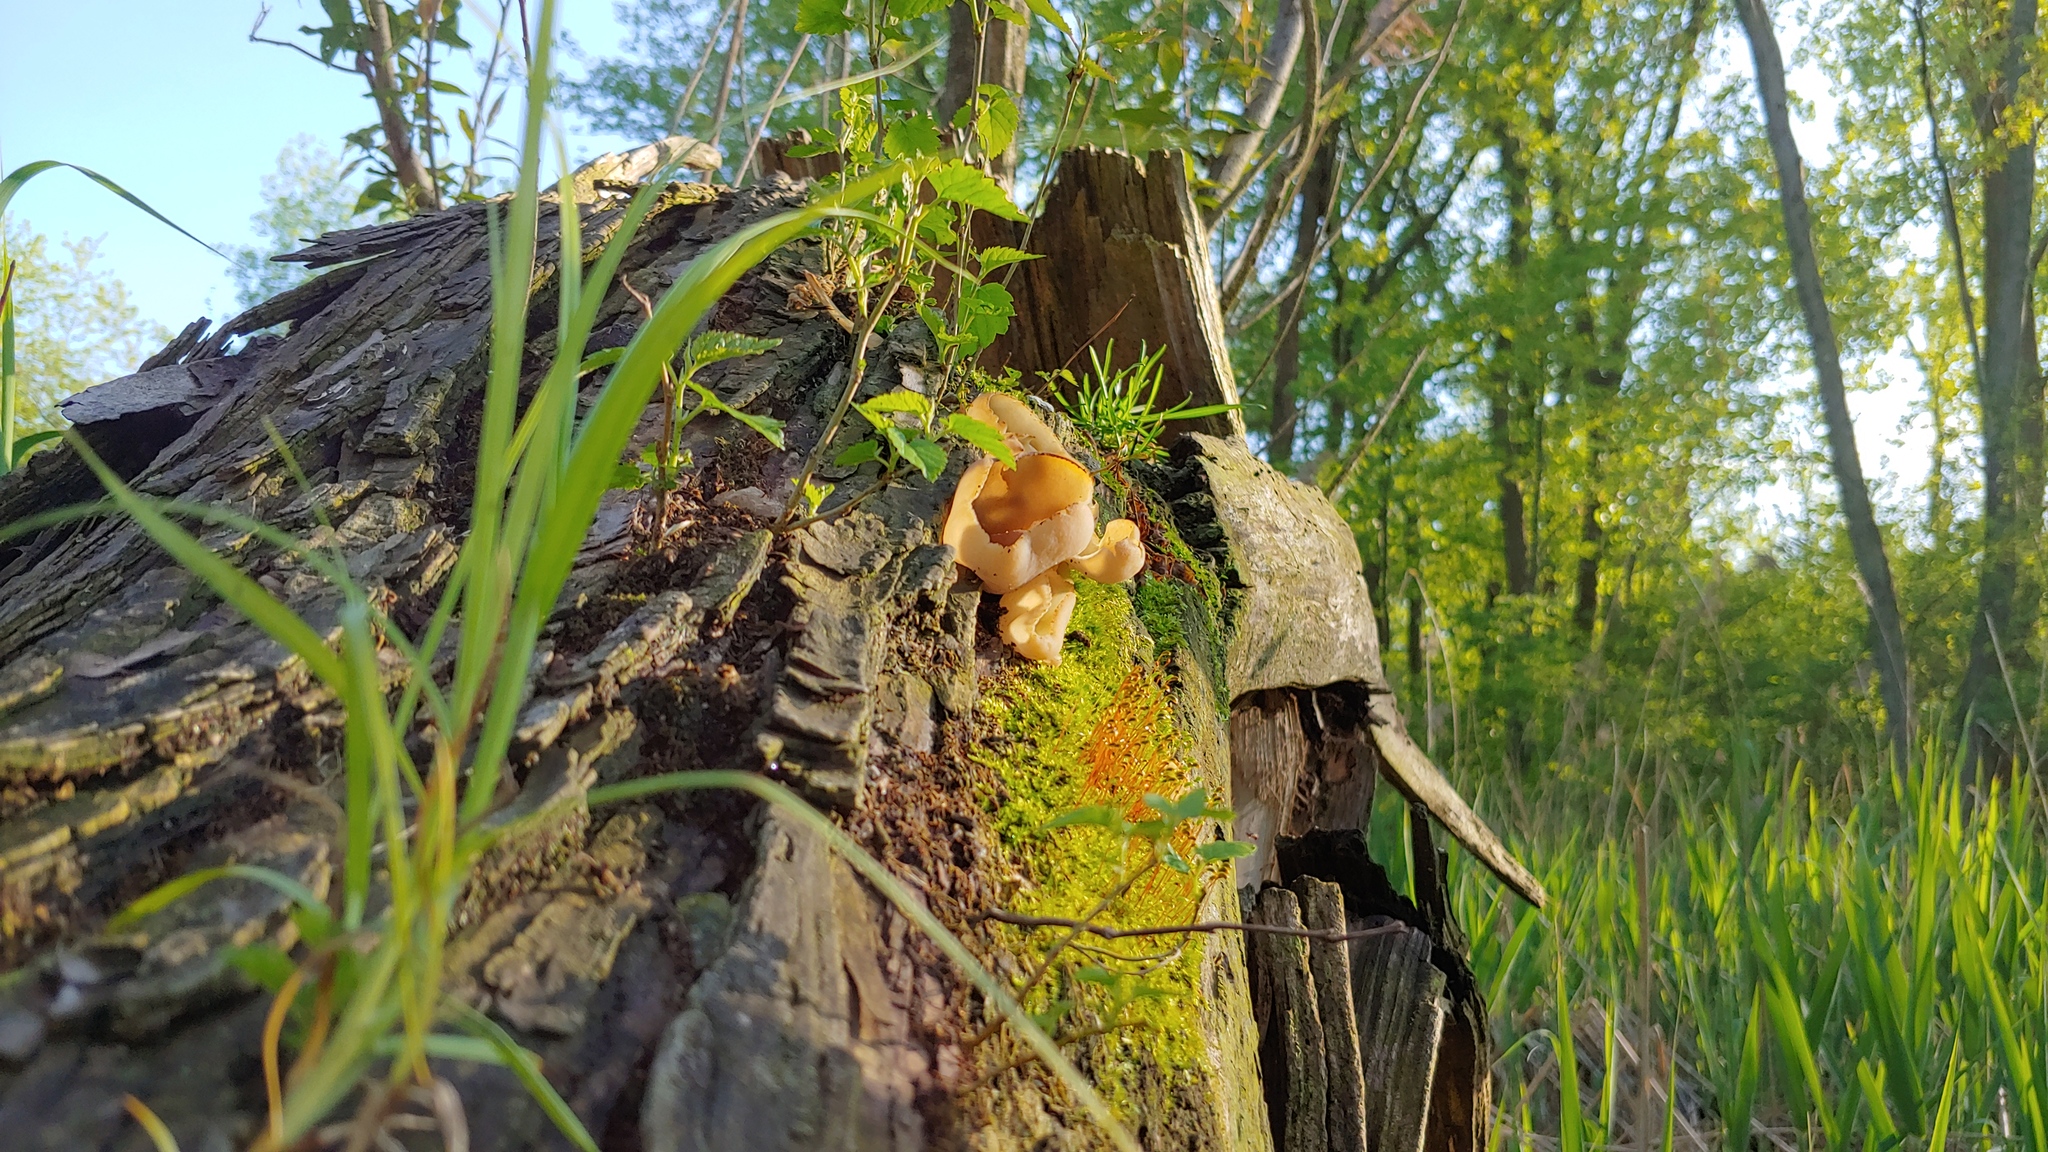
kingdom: Fungi
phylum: Basidiomycota
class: Agaricomycetes
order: Auriculariales
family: Auriculariaceae
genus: Auricularia
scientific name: Auricularia americana
